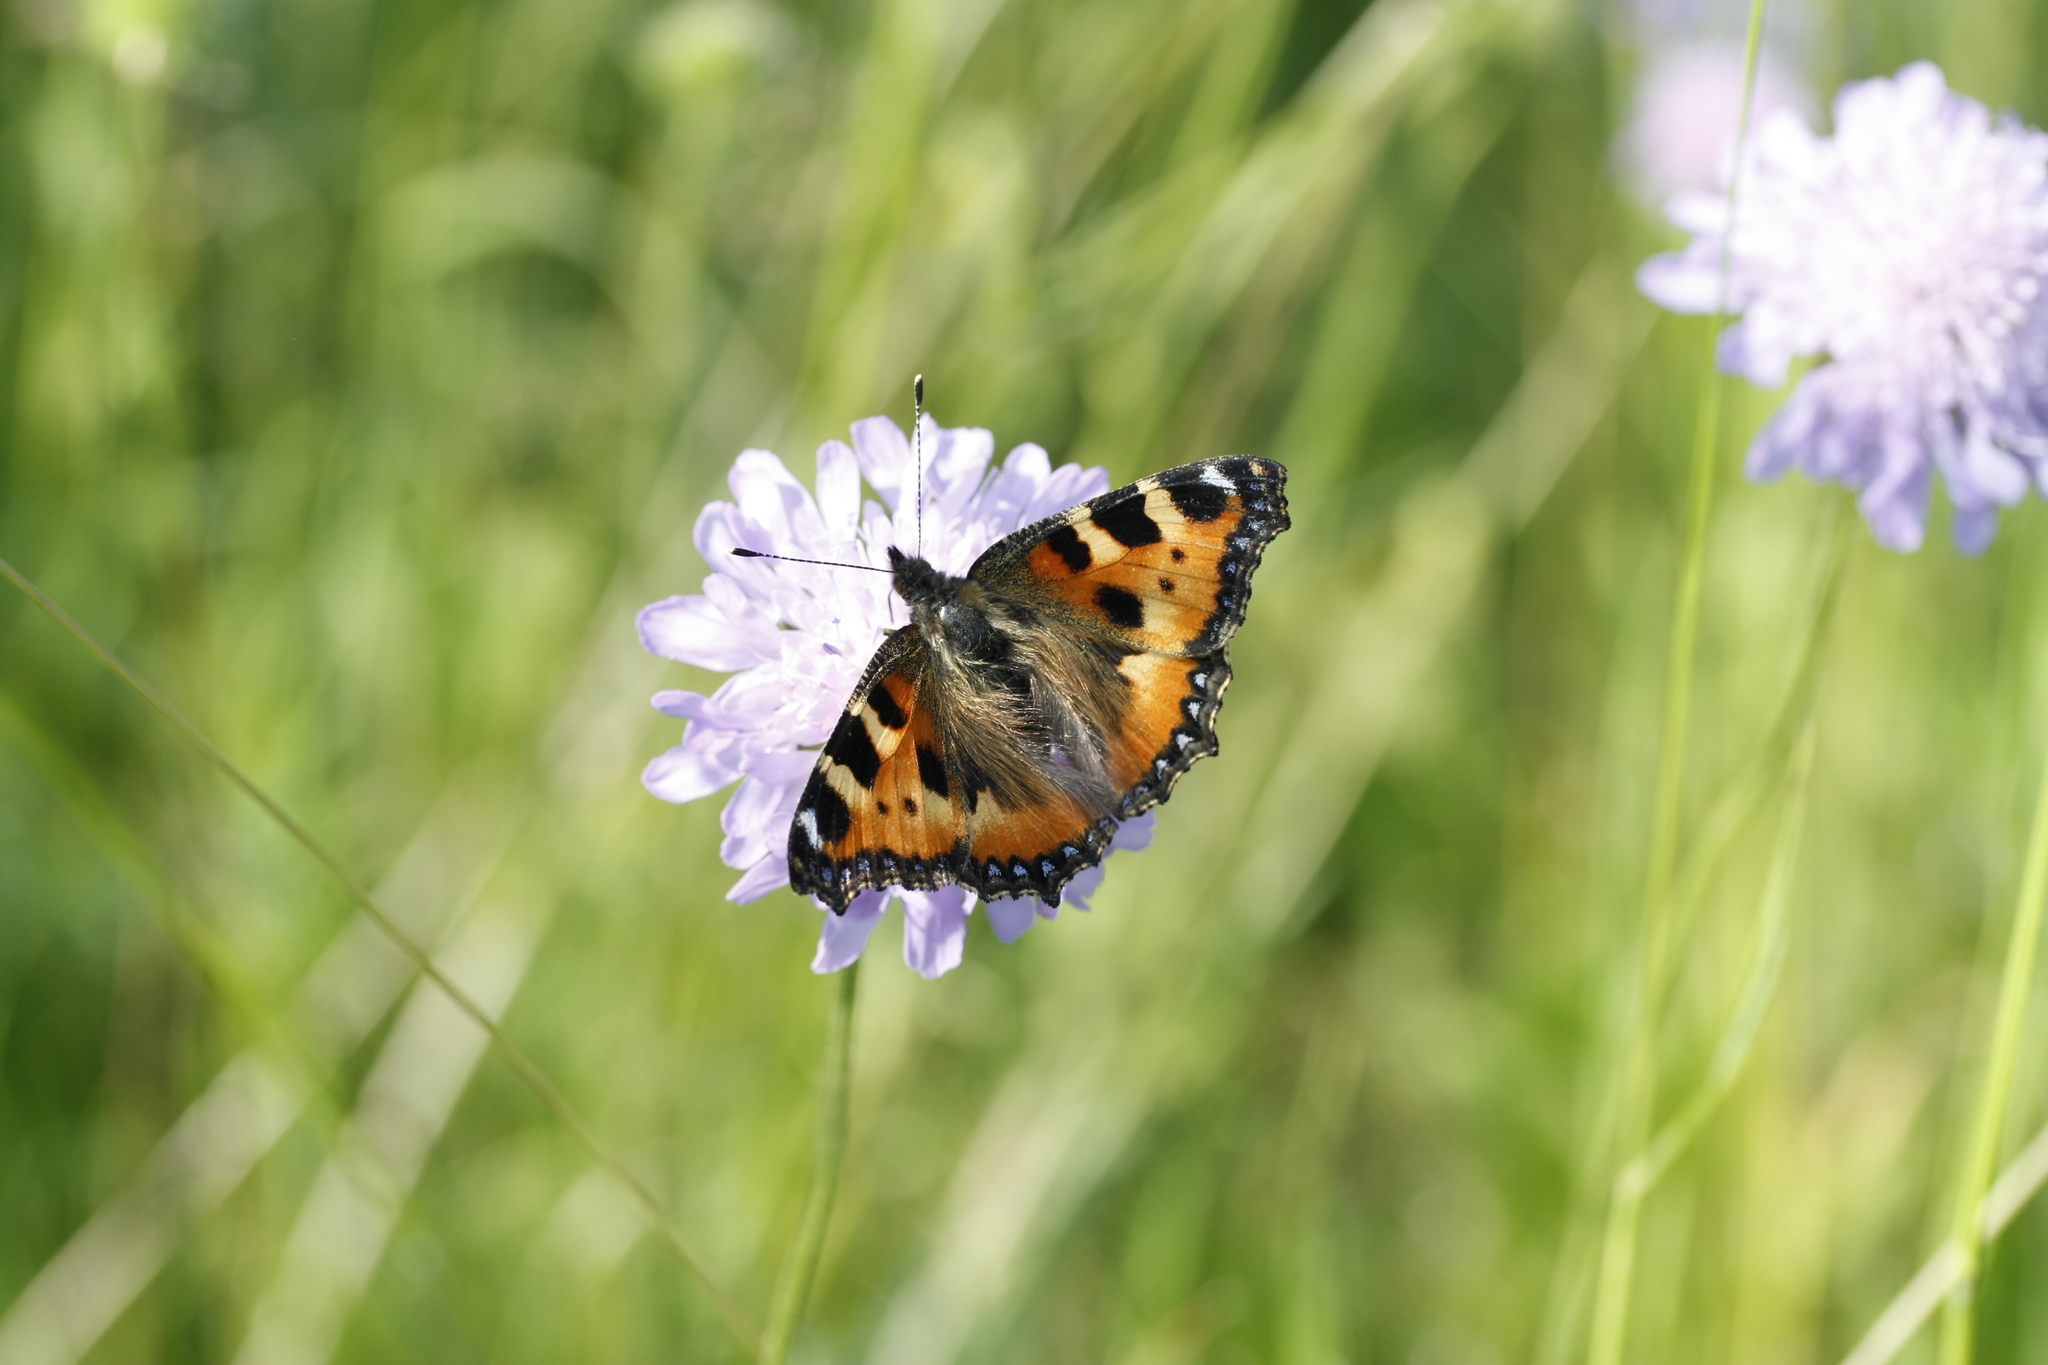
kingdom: Animalia
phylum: Arthropoda
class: Insecta
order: Lepidoptera
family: Nymphalidae
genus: Aglais
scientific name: Aglais urticae
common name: Small tortoiseshell
